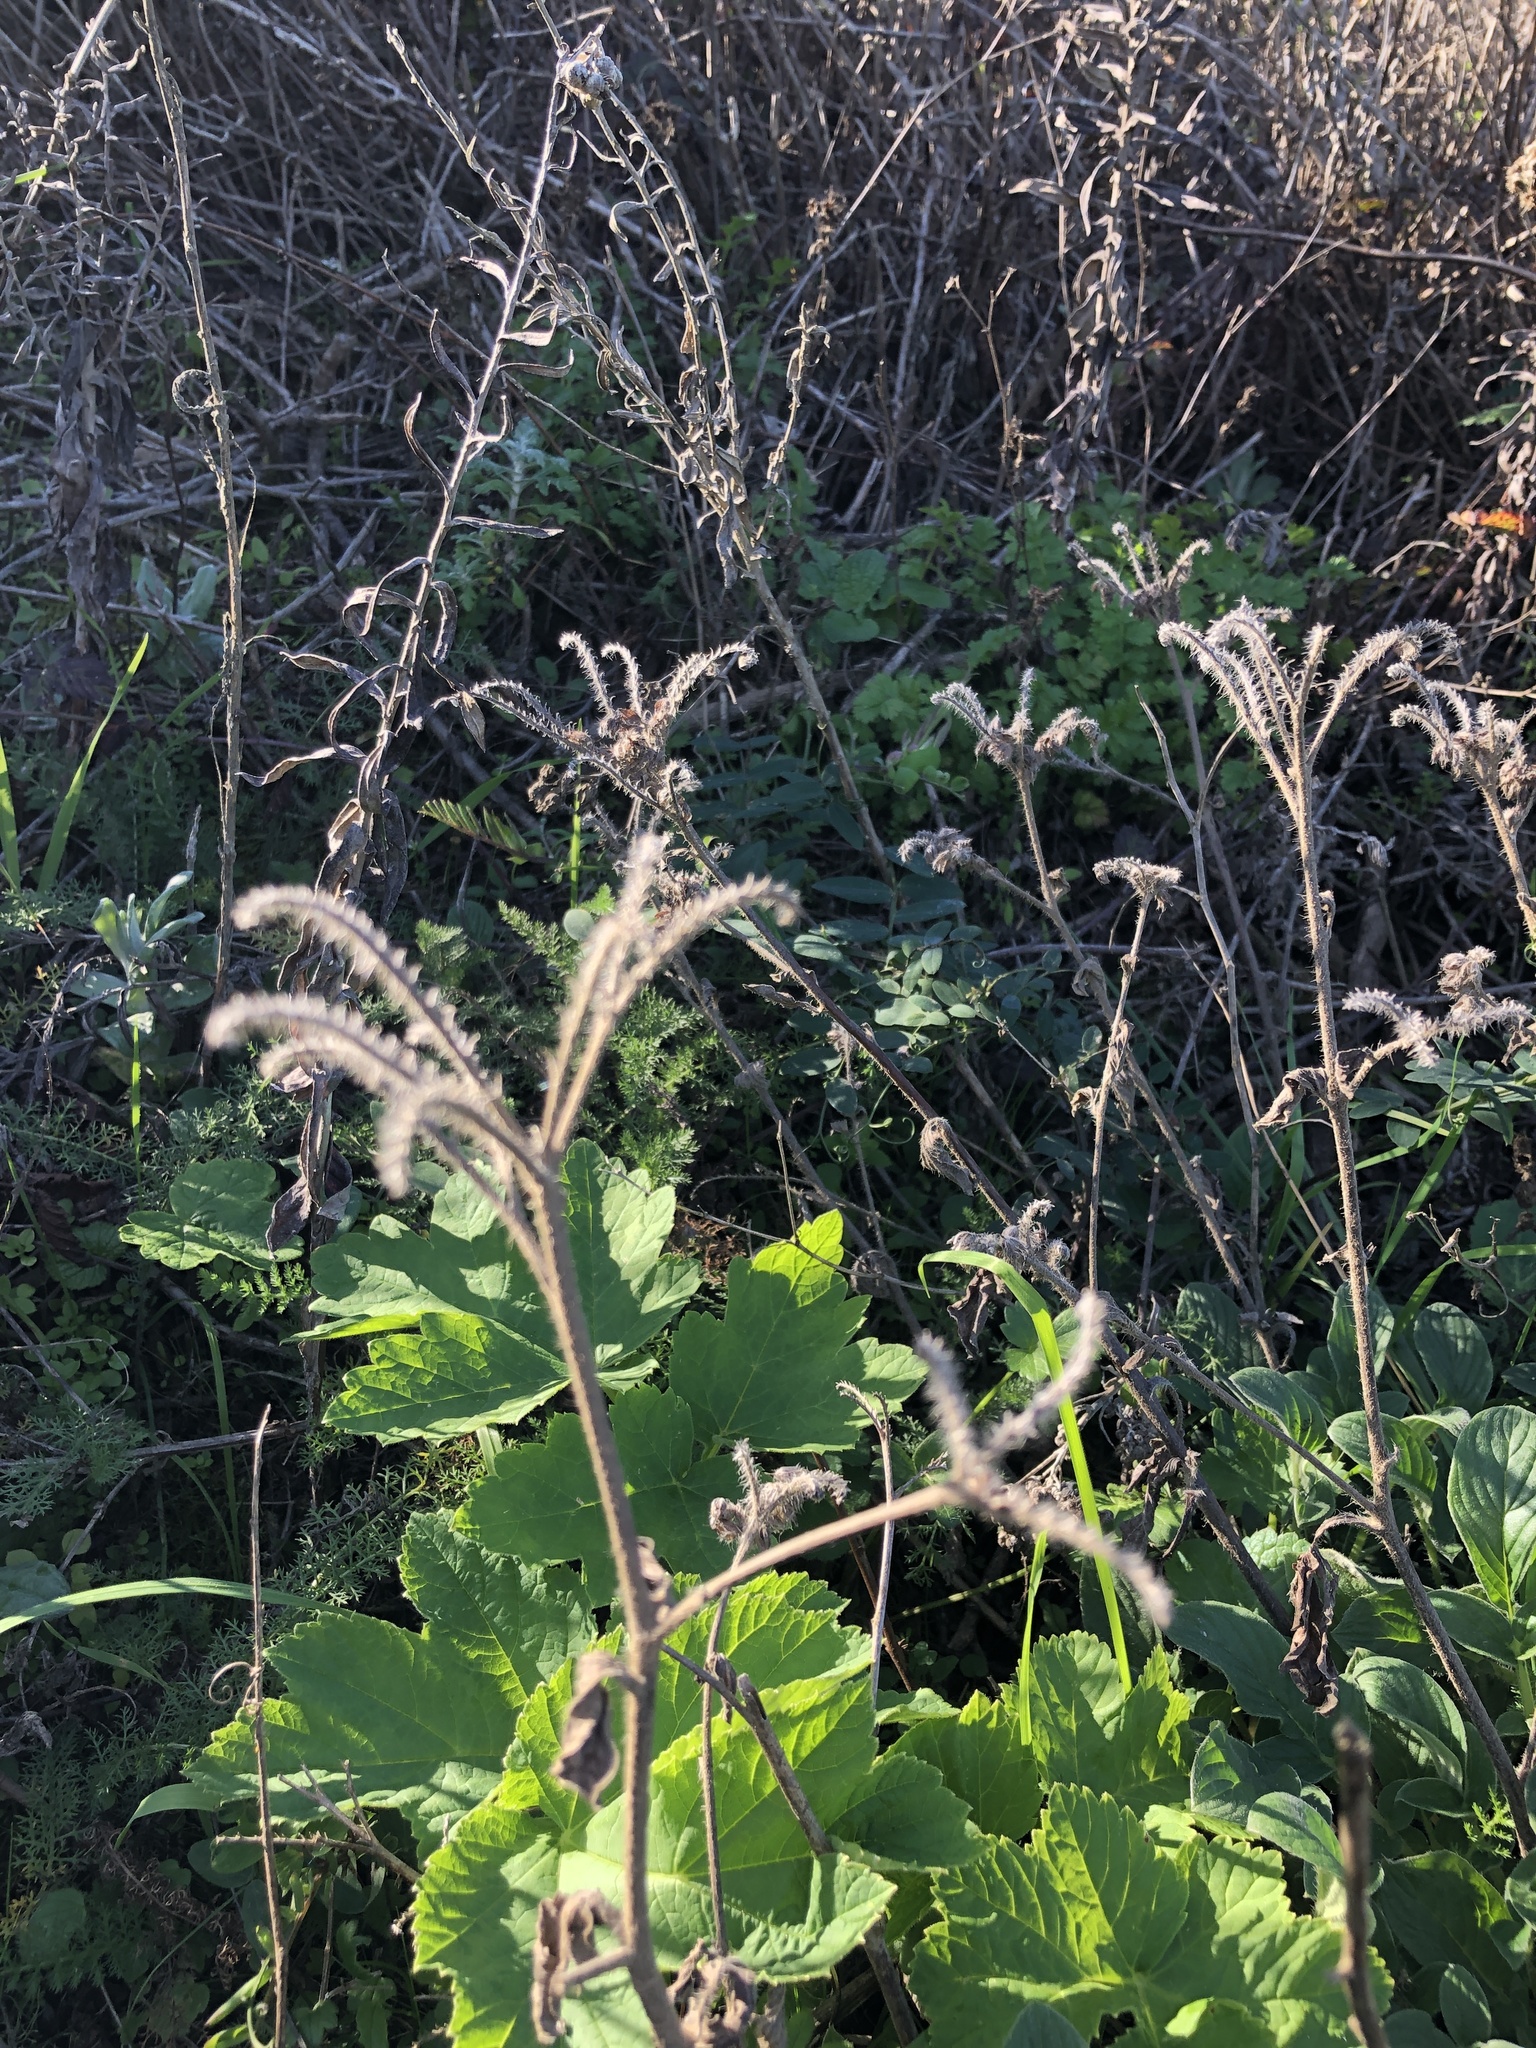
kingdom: Plantae
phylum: Tracheophyta
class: Magnoliopsida
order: Boraginales
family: Hydrophyllaceae
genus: Phacelia
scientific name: Phacelia californica
